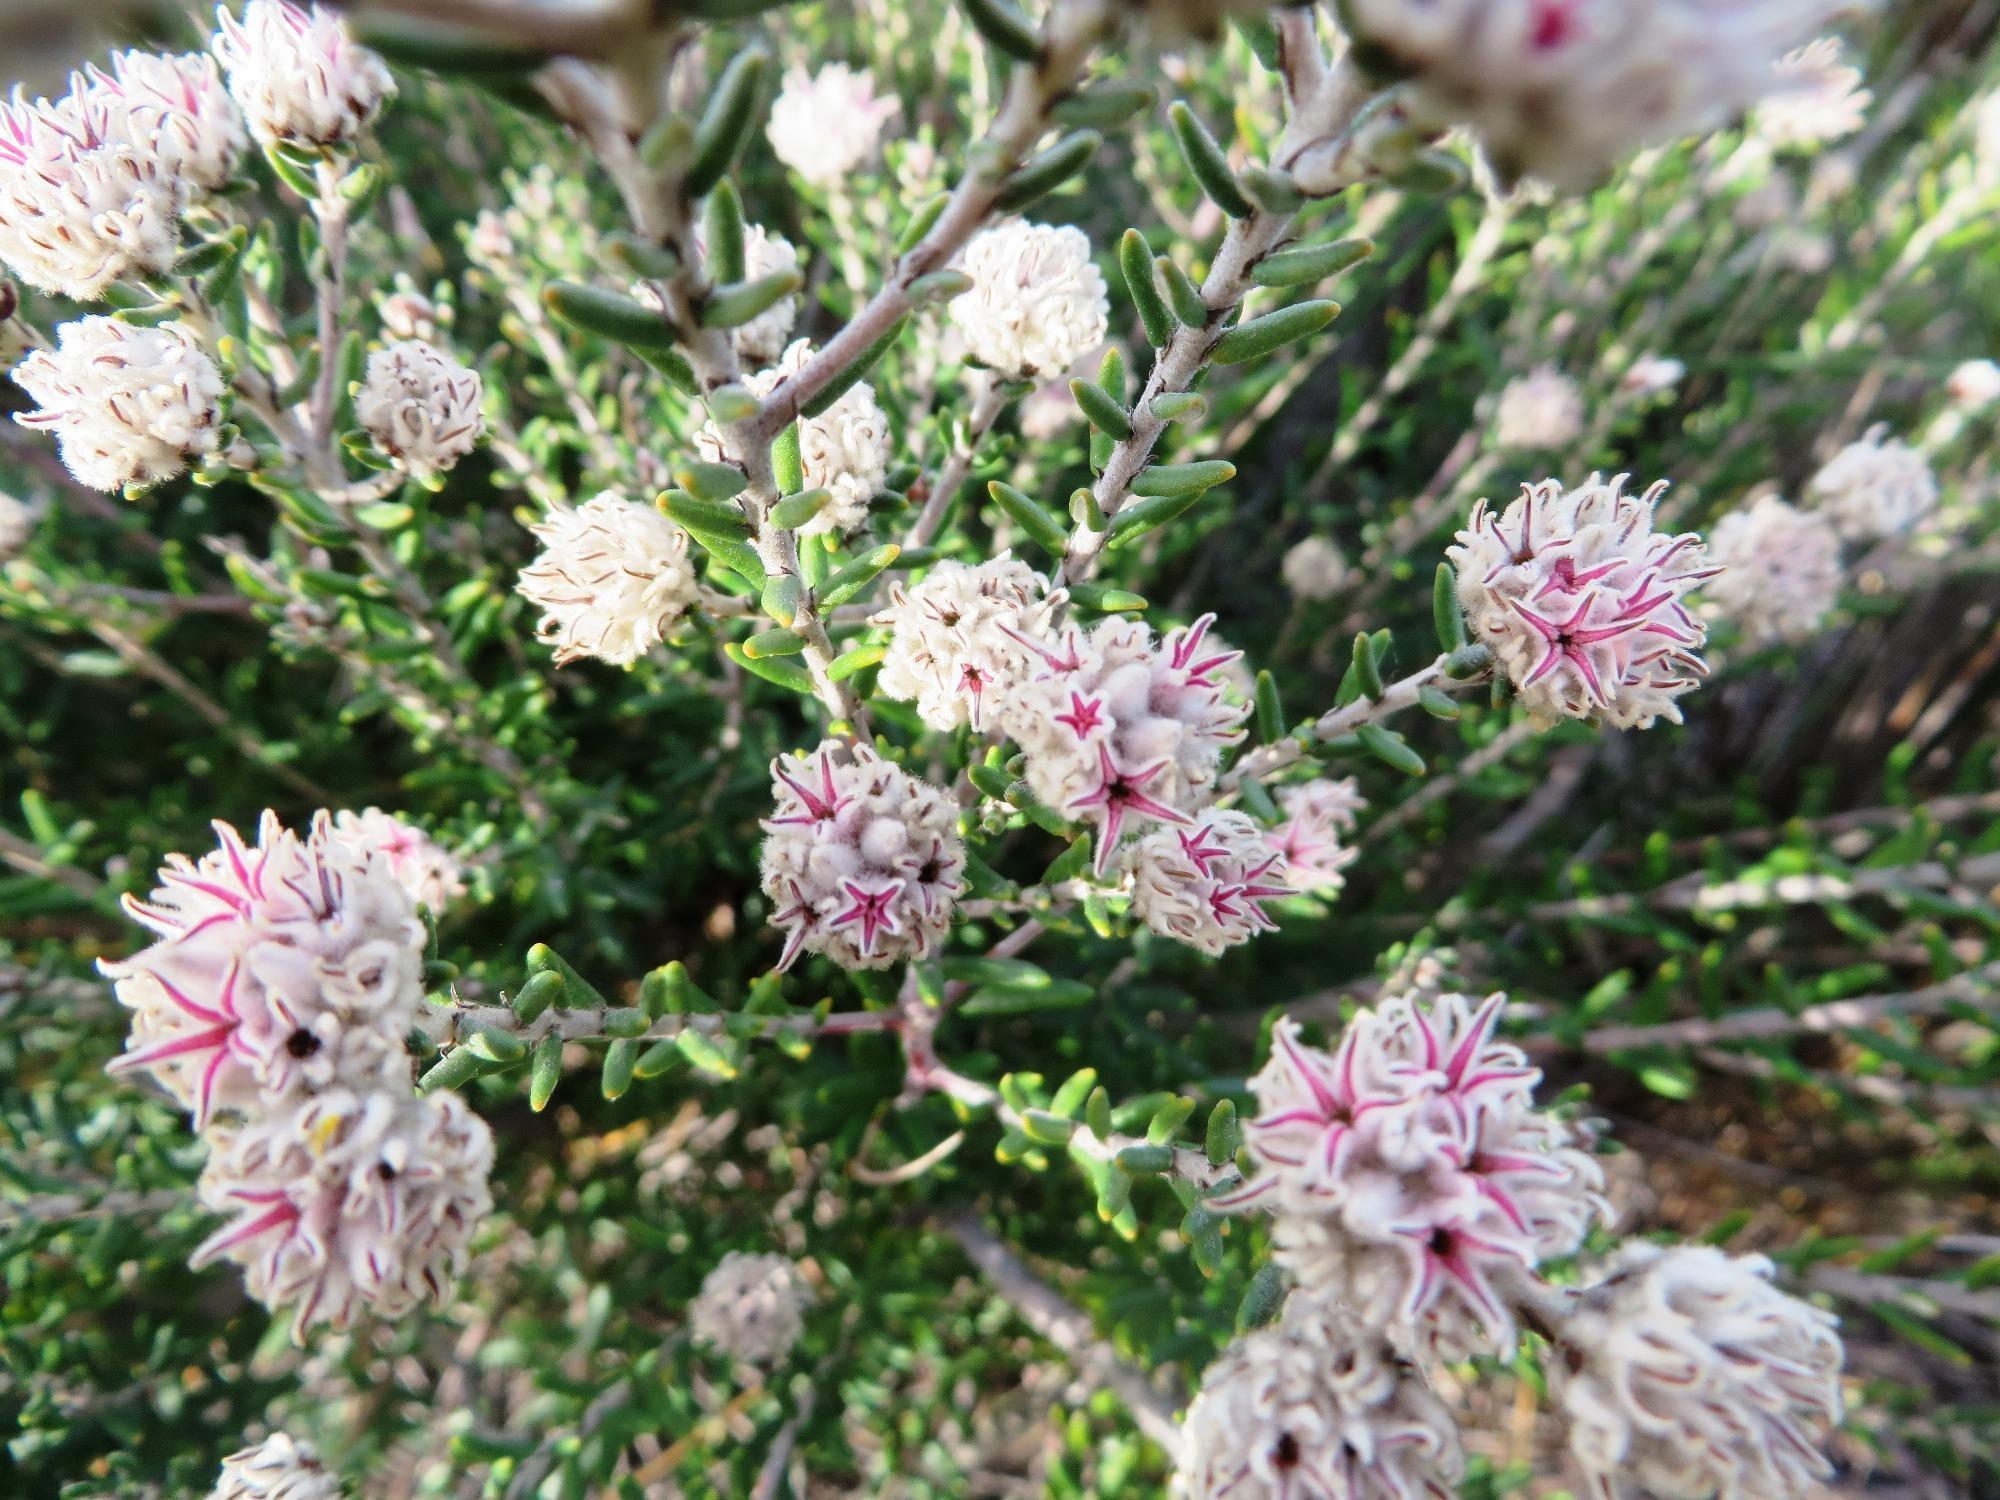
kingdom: Plantae
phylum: Tracheophyta
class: Magnoliopsida
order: Rosales
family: Rhamnaceae
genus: Trichocephalus
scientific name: Trichocephalus stipularis
